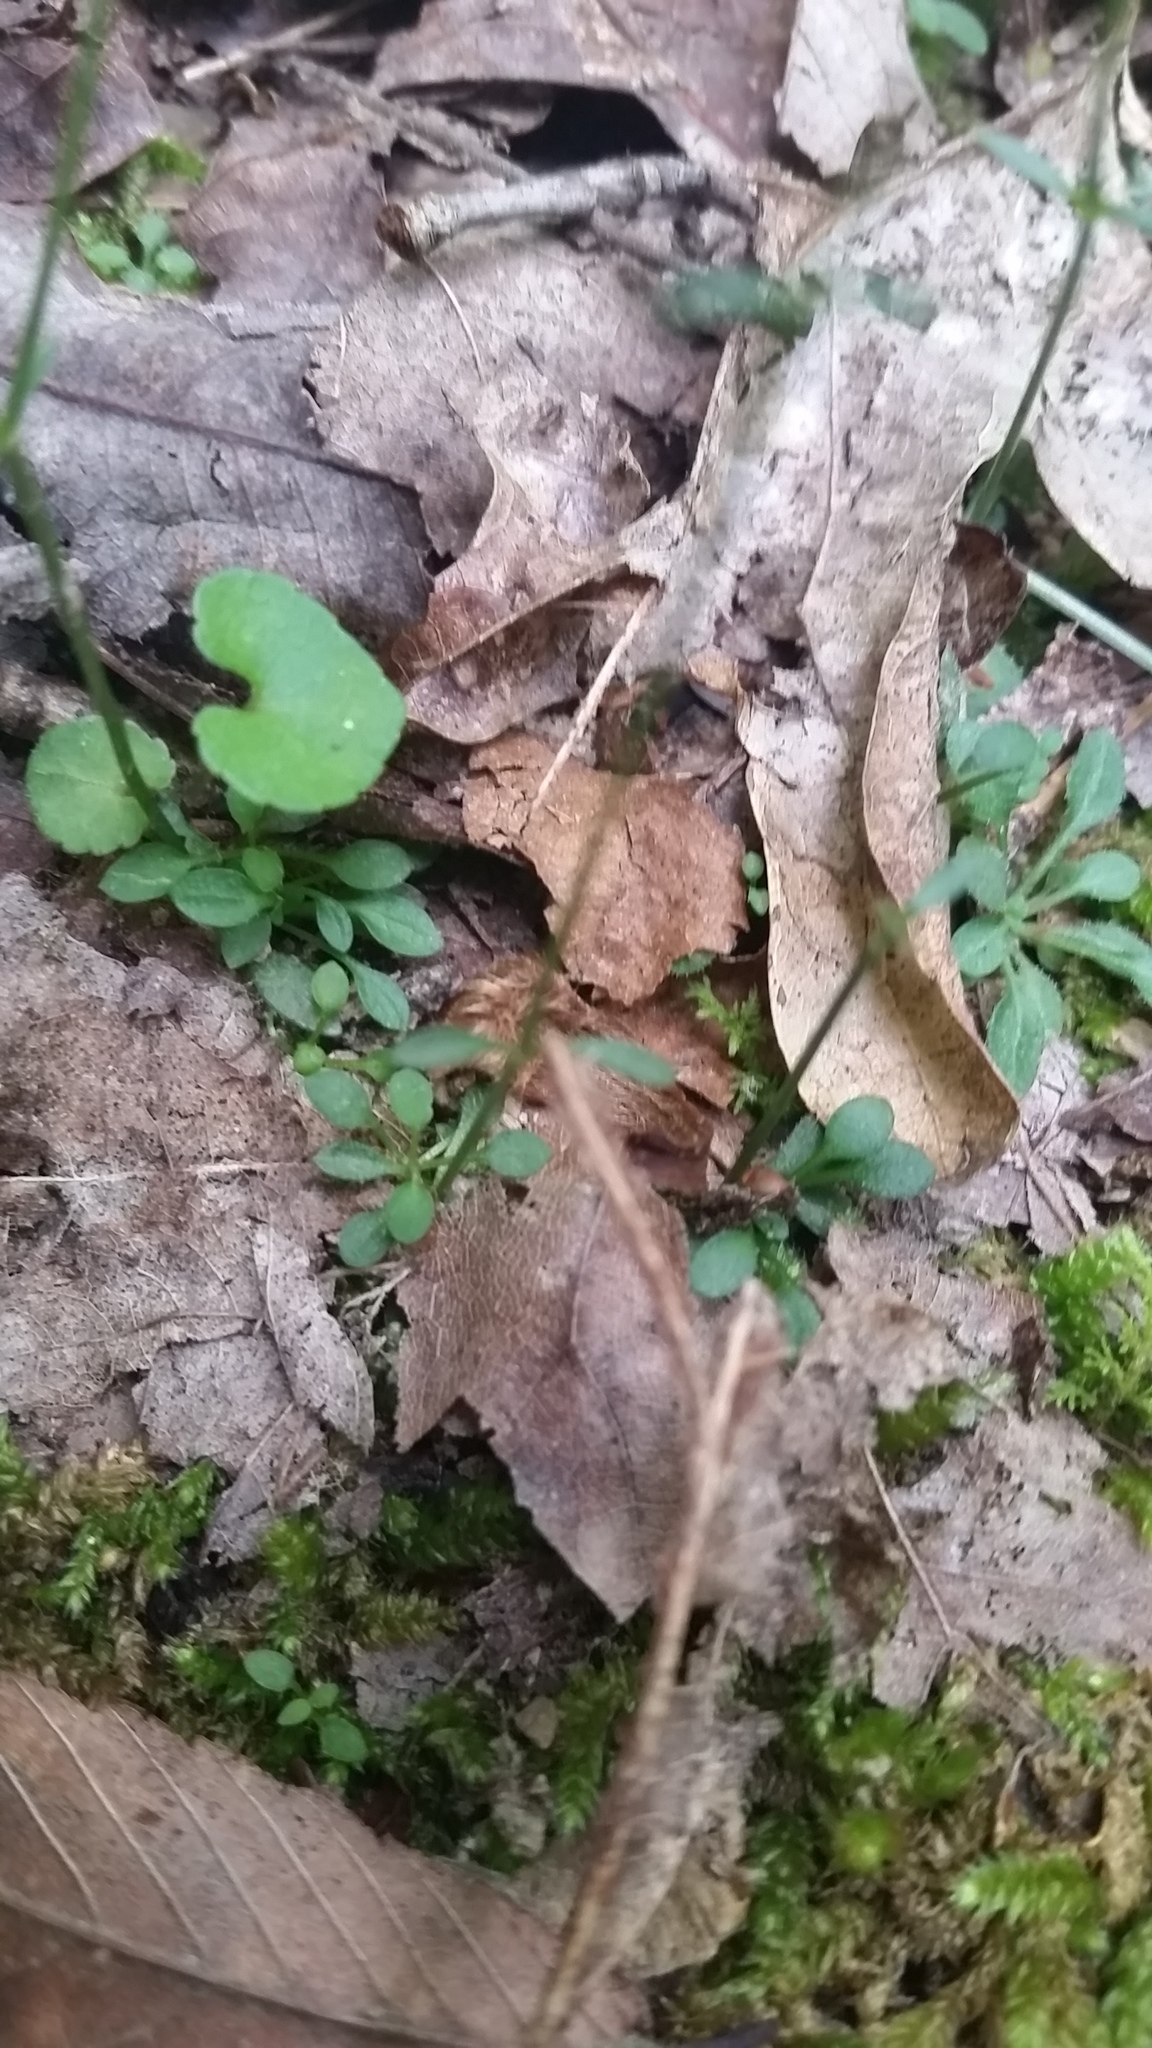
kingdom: Plantae
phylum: Tracheophyta
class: Magnoliopsida
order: Gentianales
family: Rubiaceae
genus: Houstonia
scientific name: Houstonia caerulea
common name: Bluets
